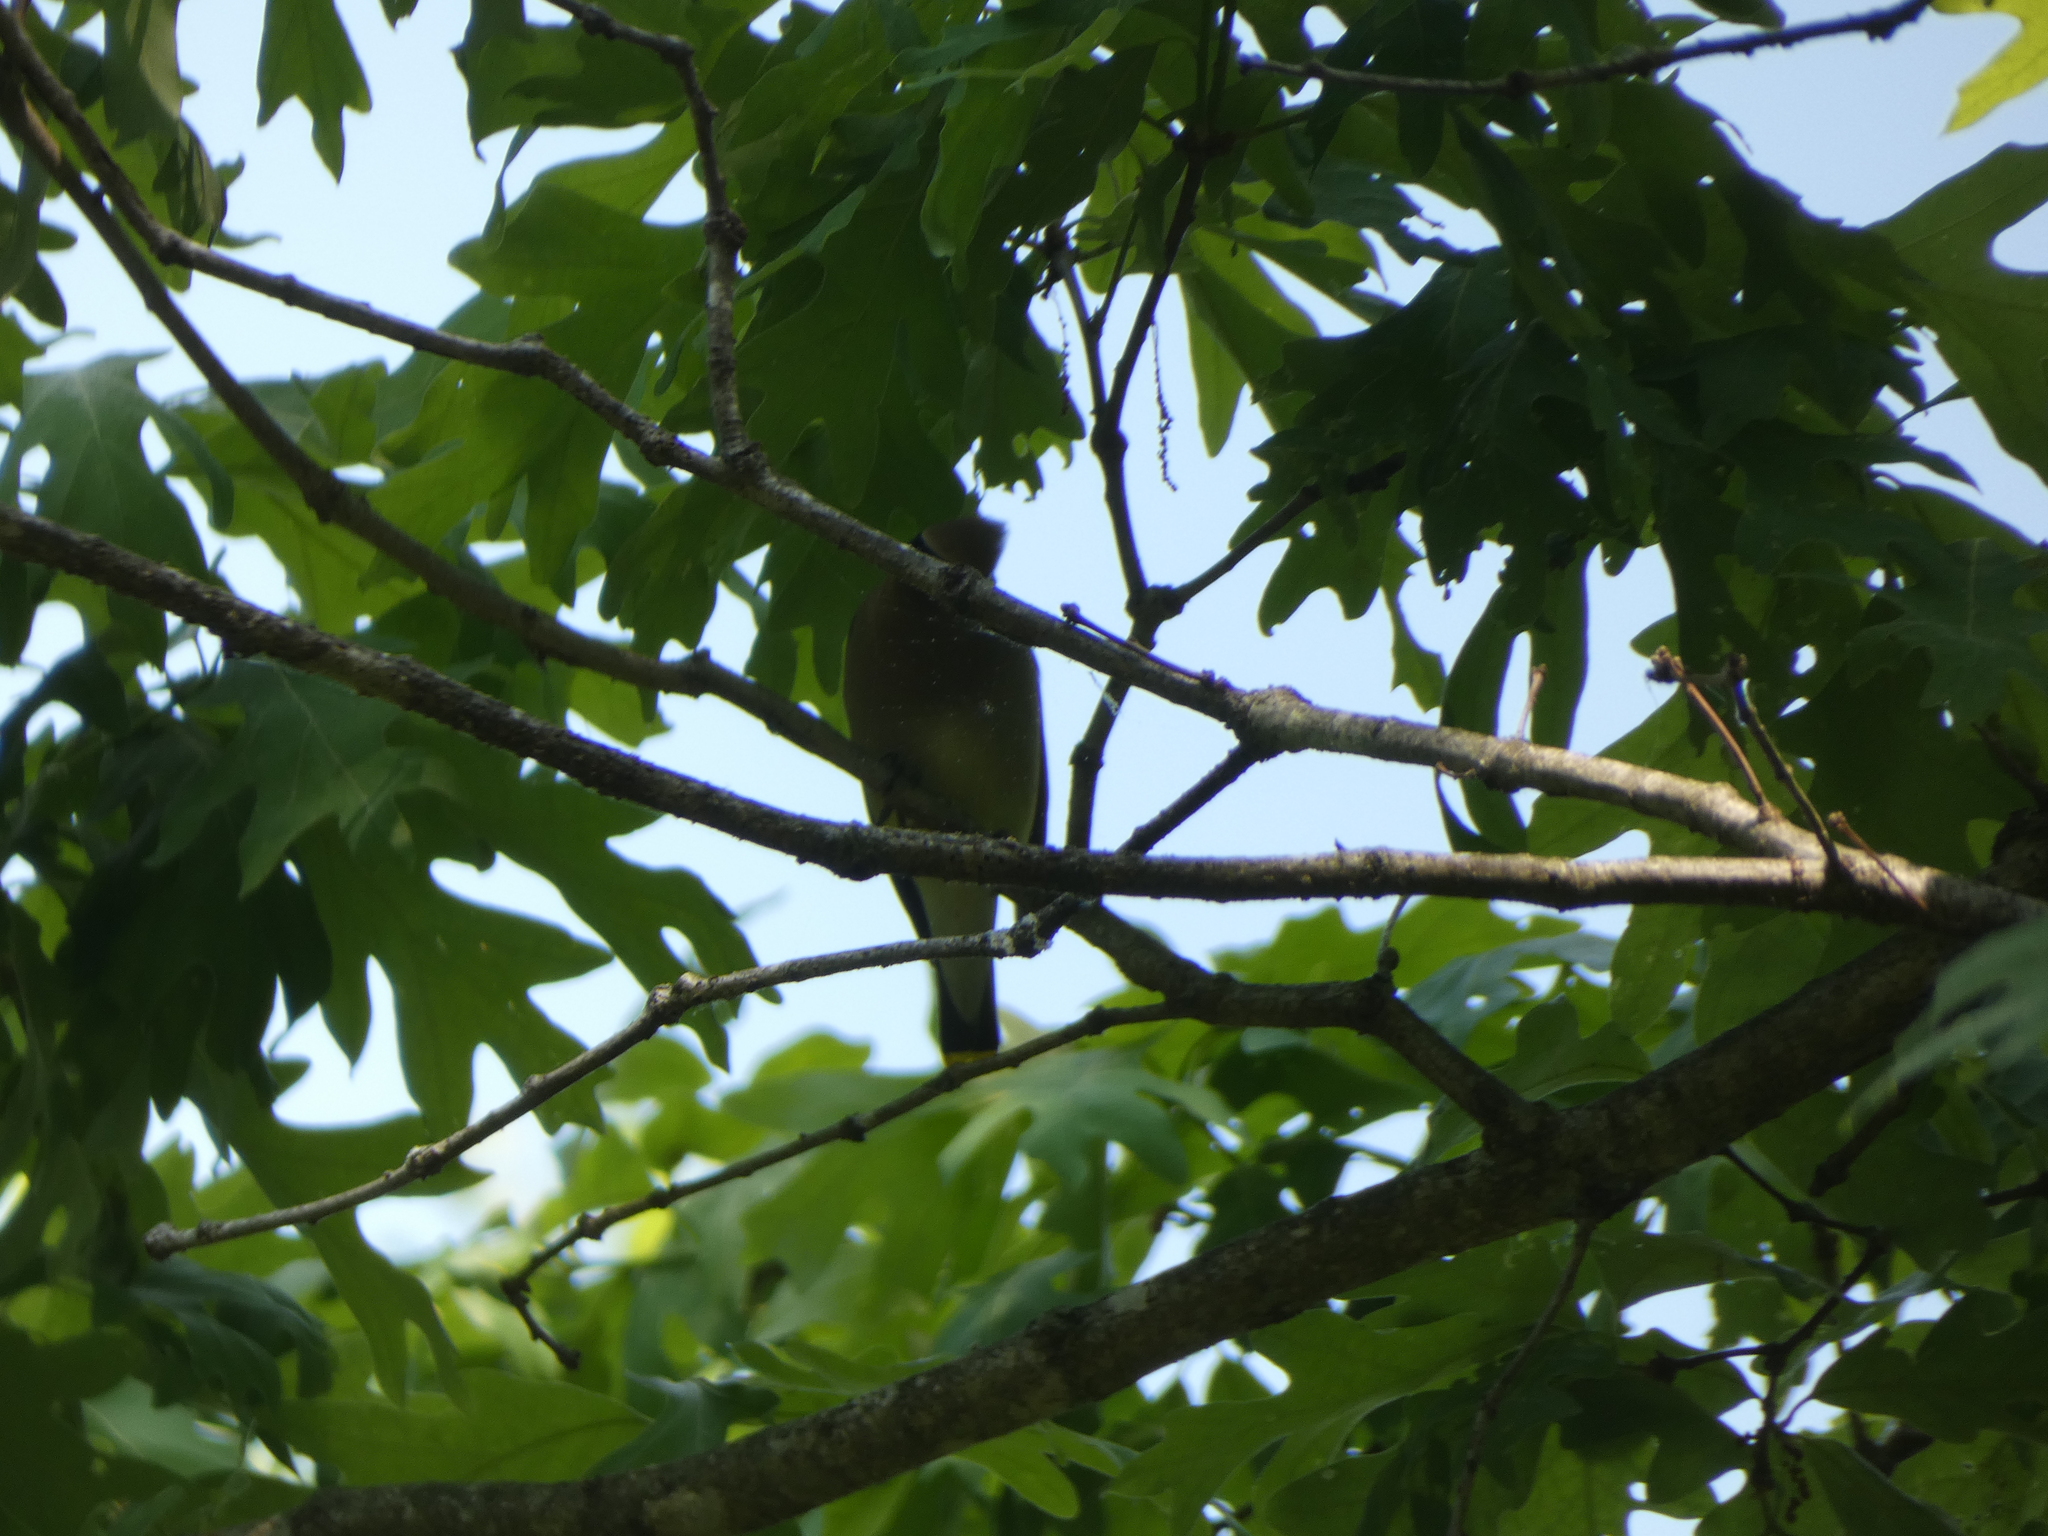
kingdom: Animalia
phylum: Chordata
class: Aves
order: Passeriformes
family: Bombycillidae
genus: Bombycilla
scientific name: Bombycilla cedrorum
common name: Cedar waxwing
